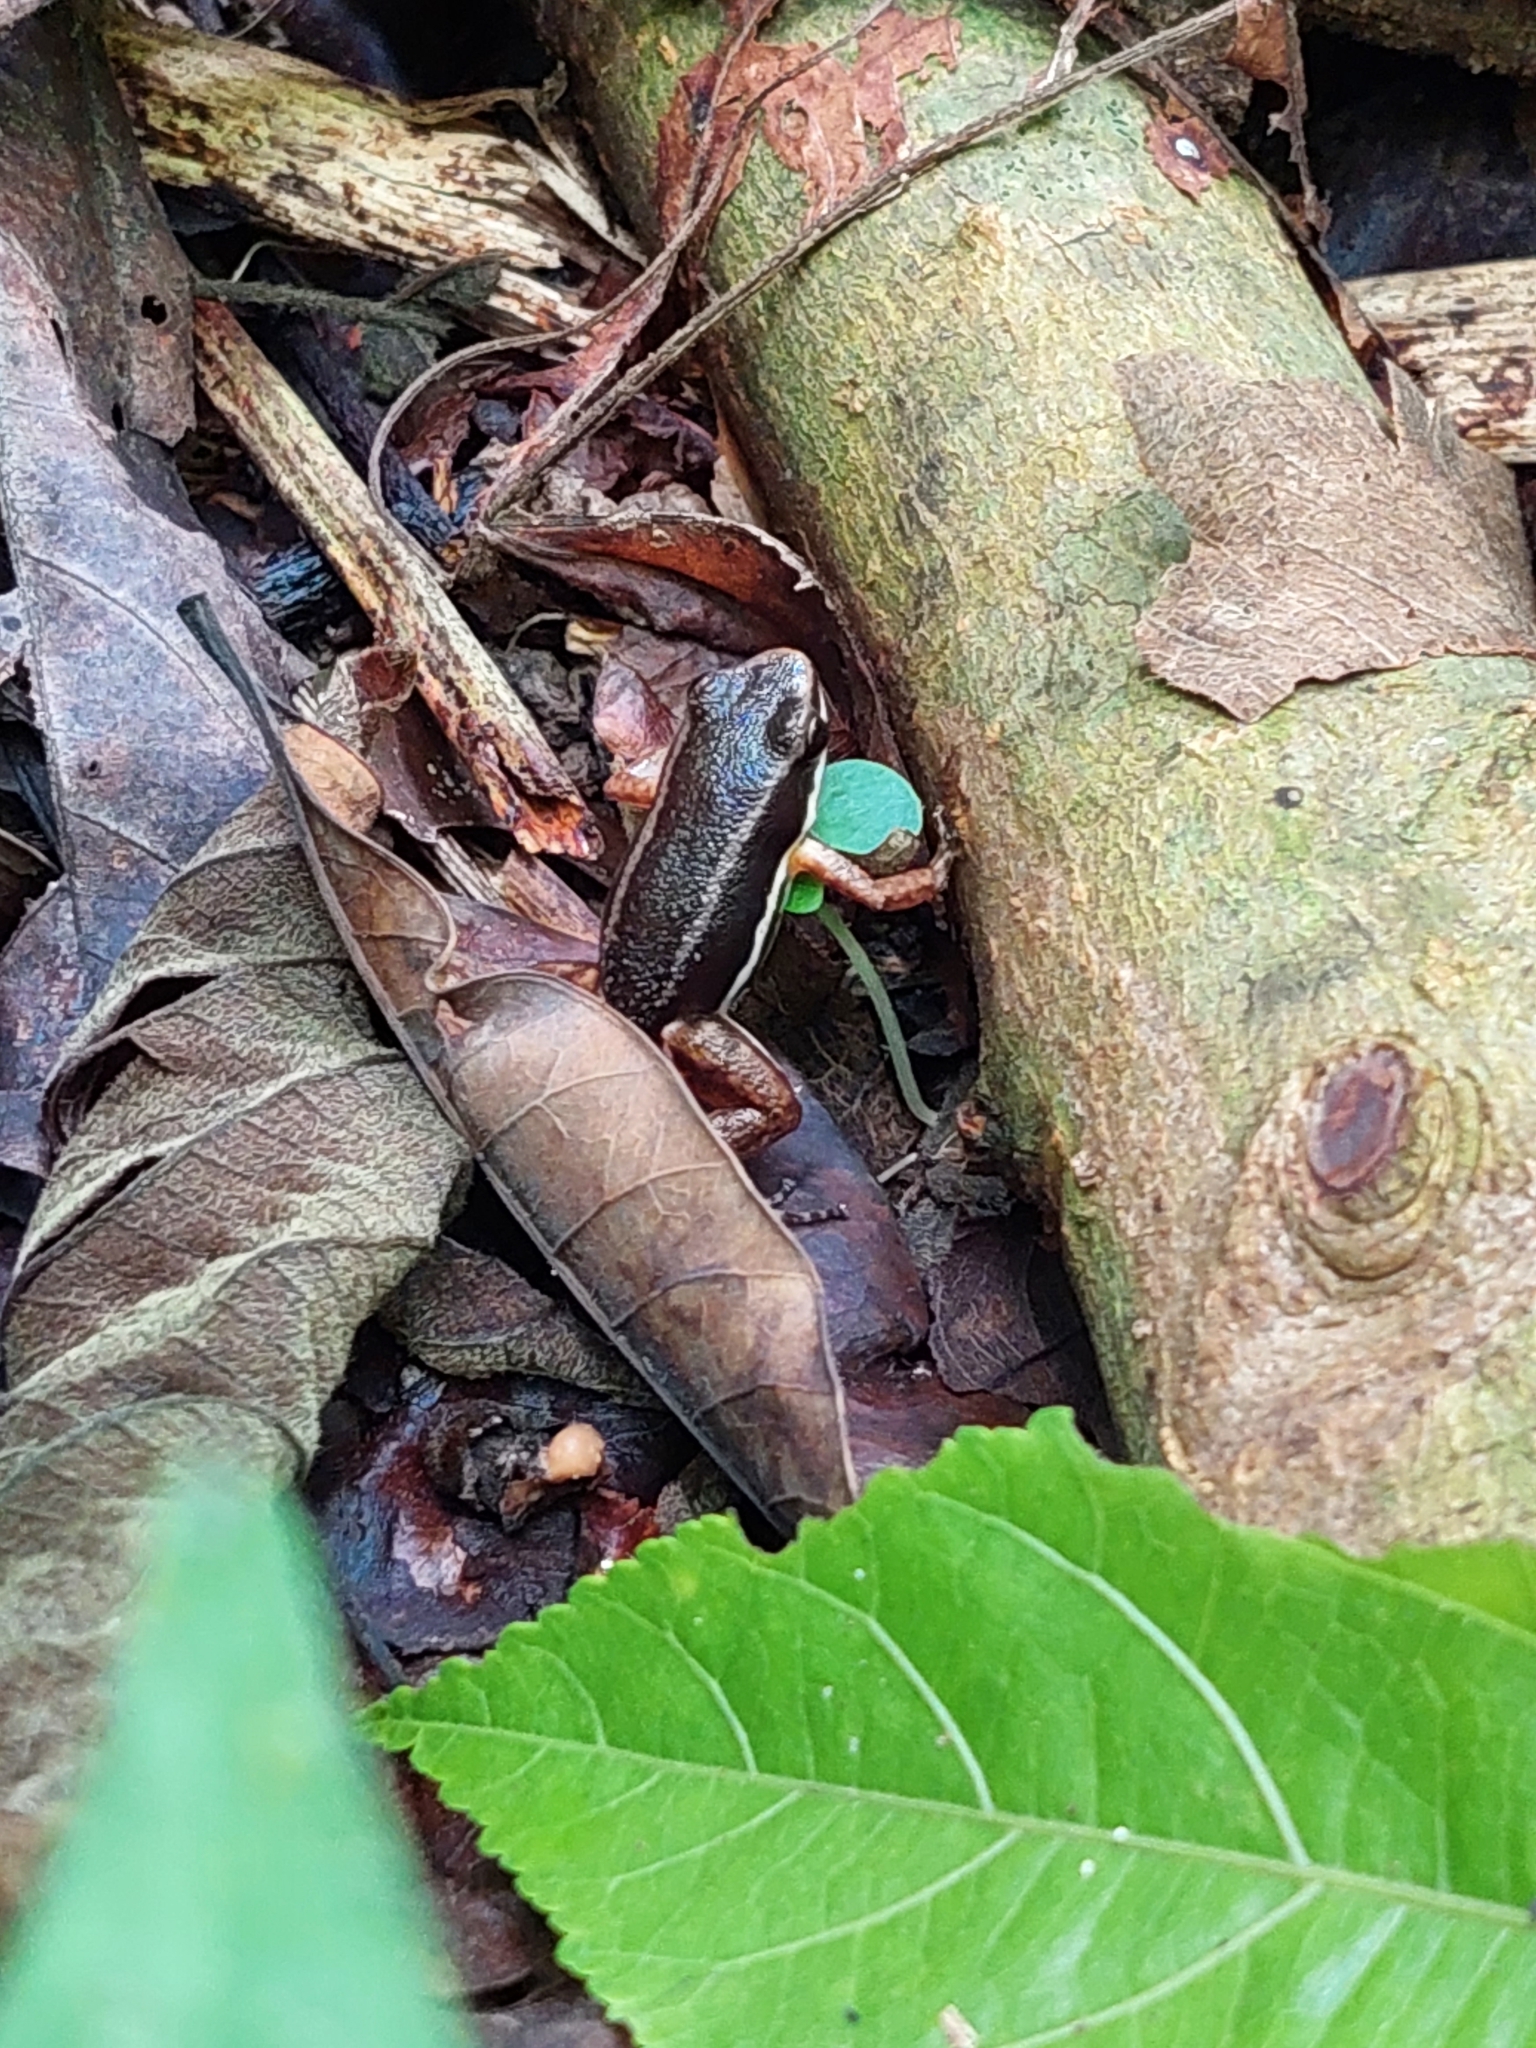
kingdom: Animalia
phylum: Chordata
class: Amphibia
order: Anura
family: Aromobatidae
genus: Allobates
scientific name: Allobates talamancae
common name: Talamanca rocket frog
